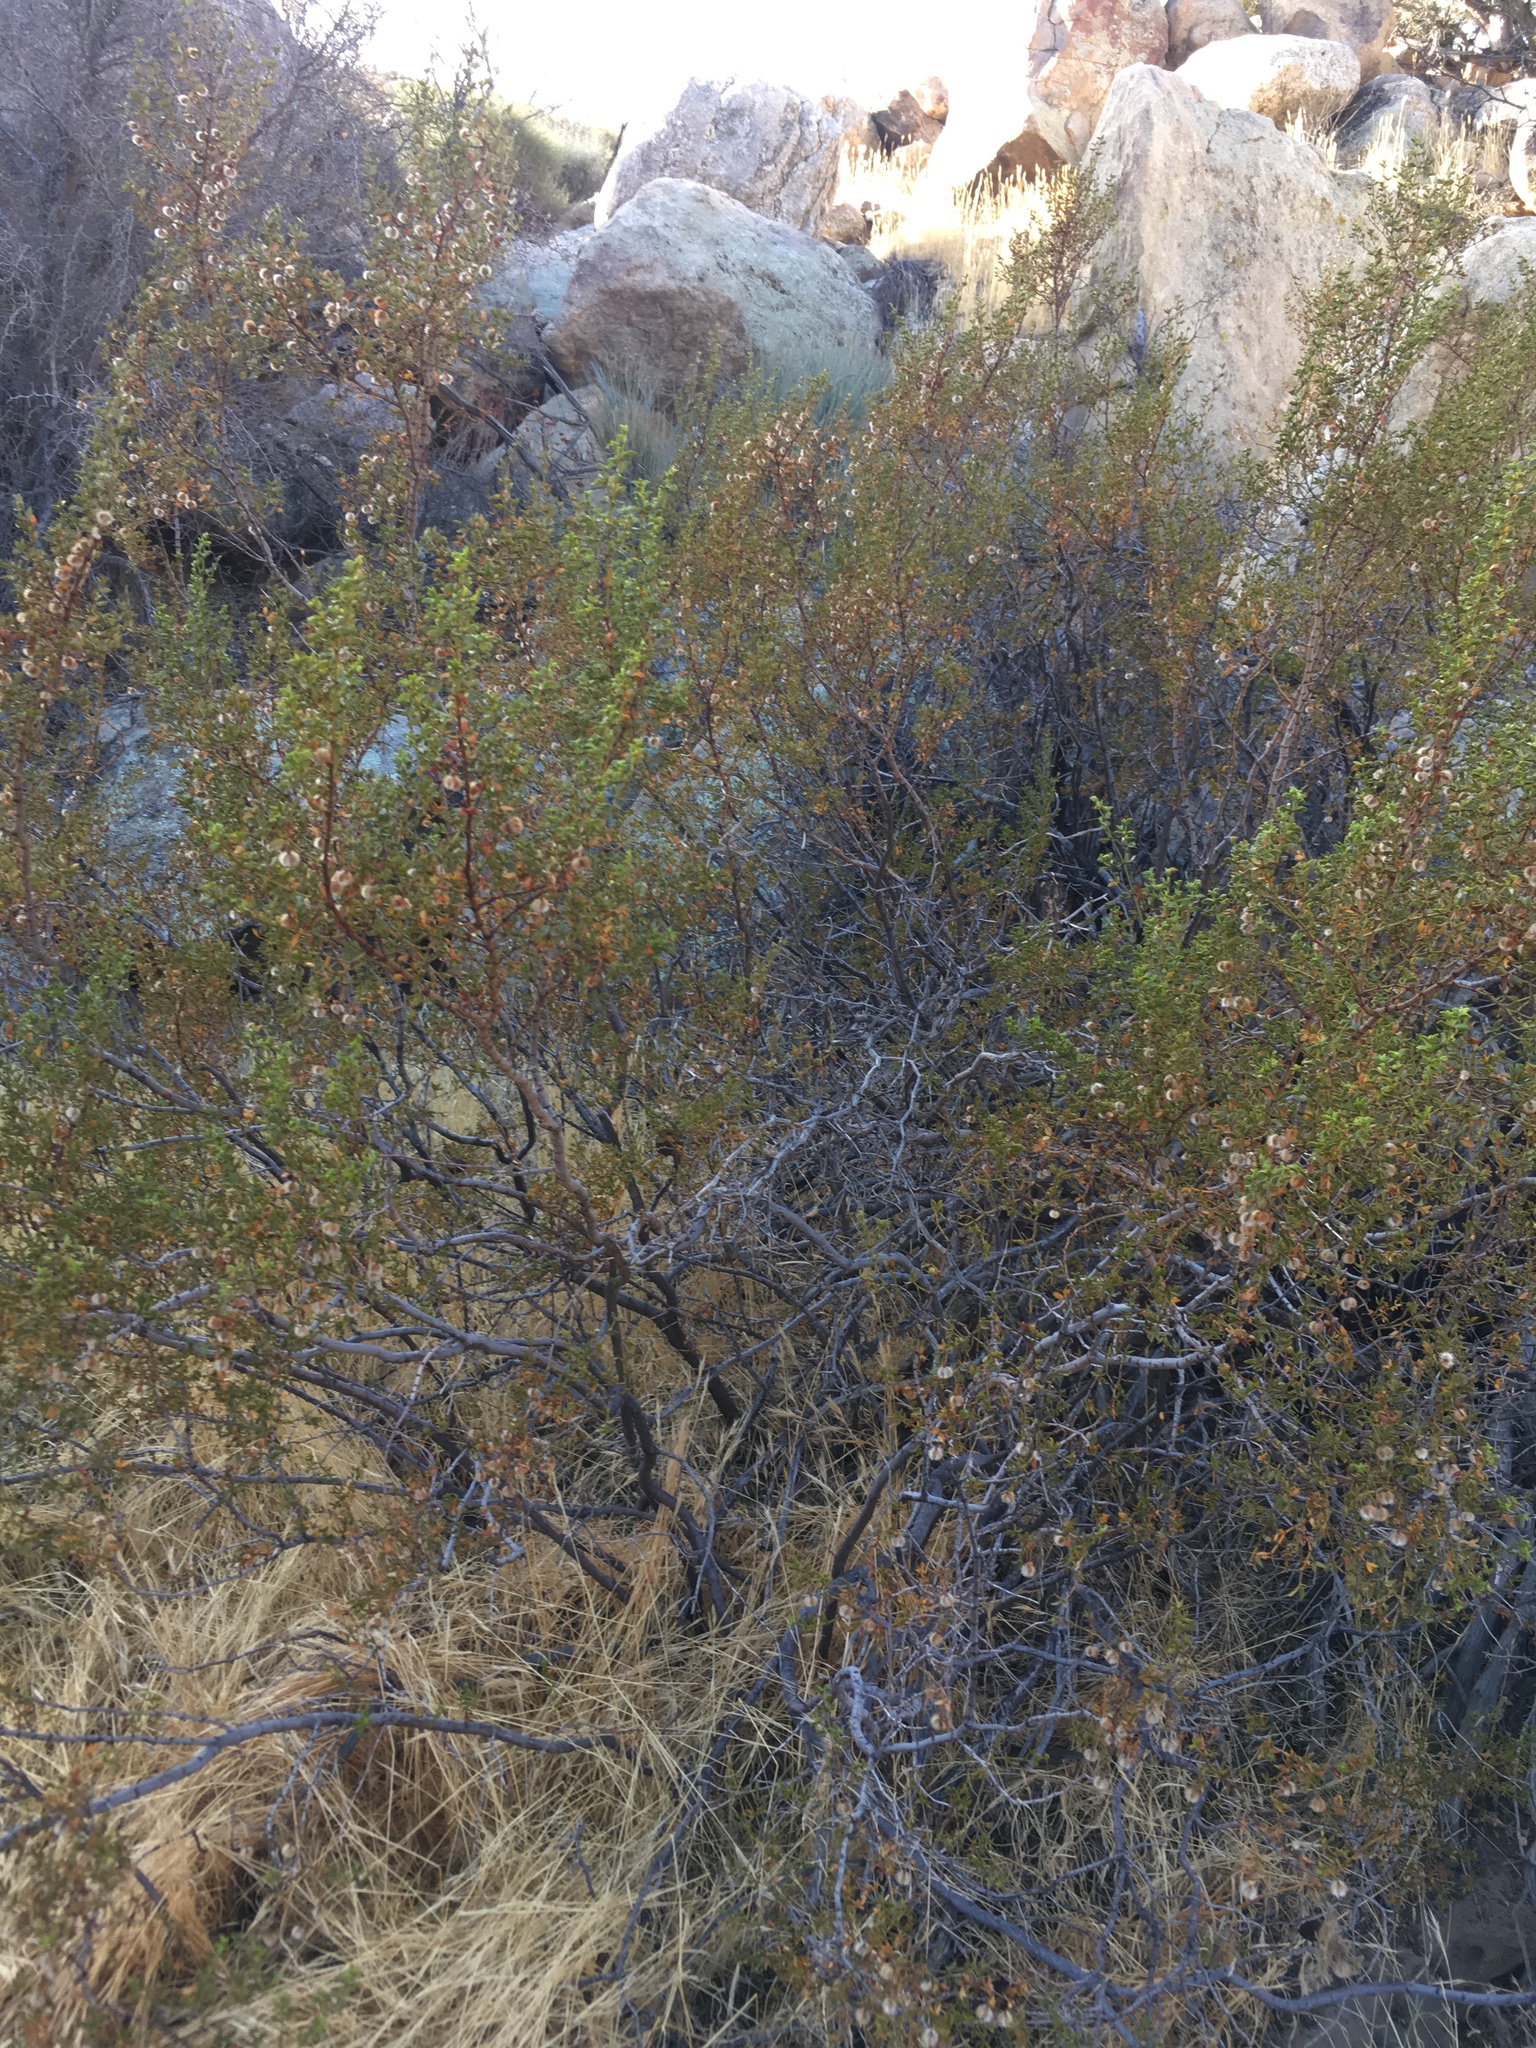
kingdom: Plantae
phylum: Tracheophyta
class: Magnoliopsida
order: Zygophyllales
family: Zygophyllaceae
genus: Larrea
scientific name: Larrea tridentata
